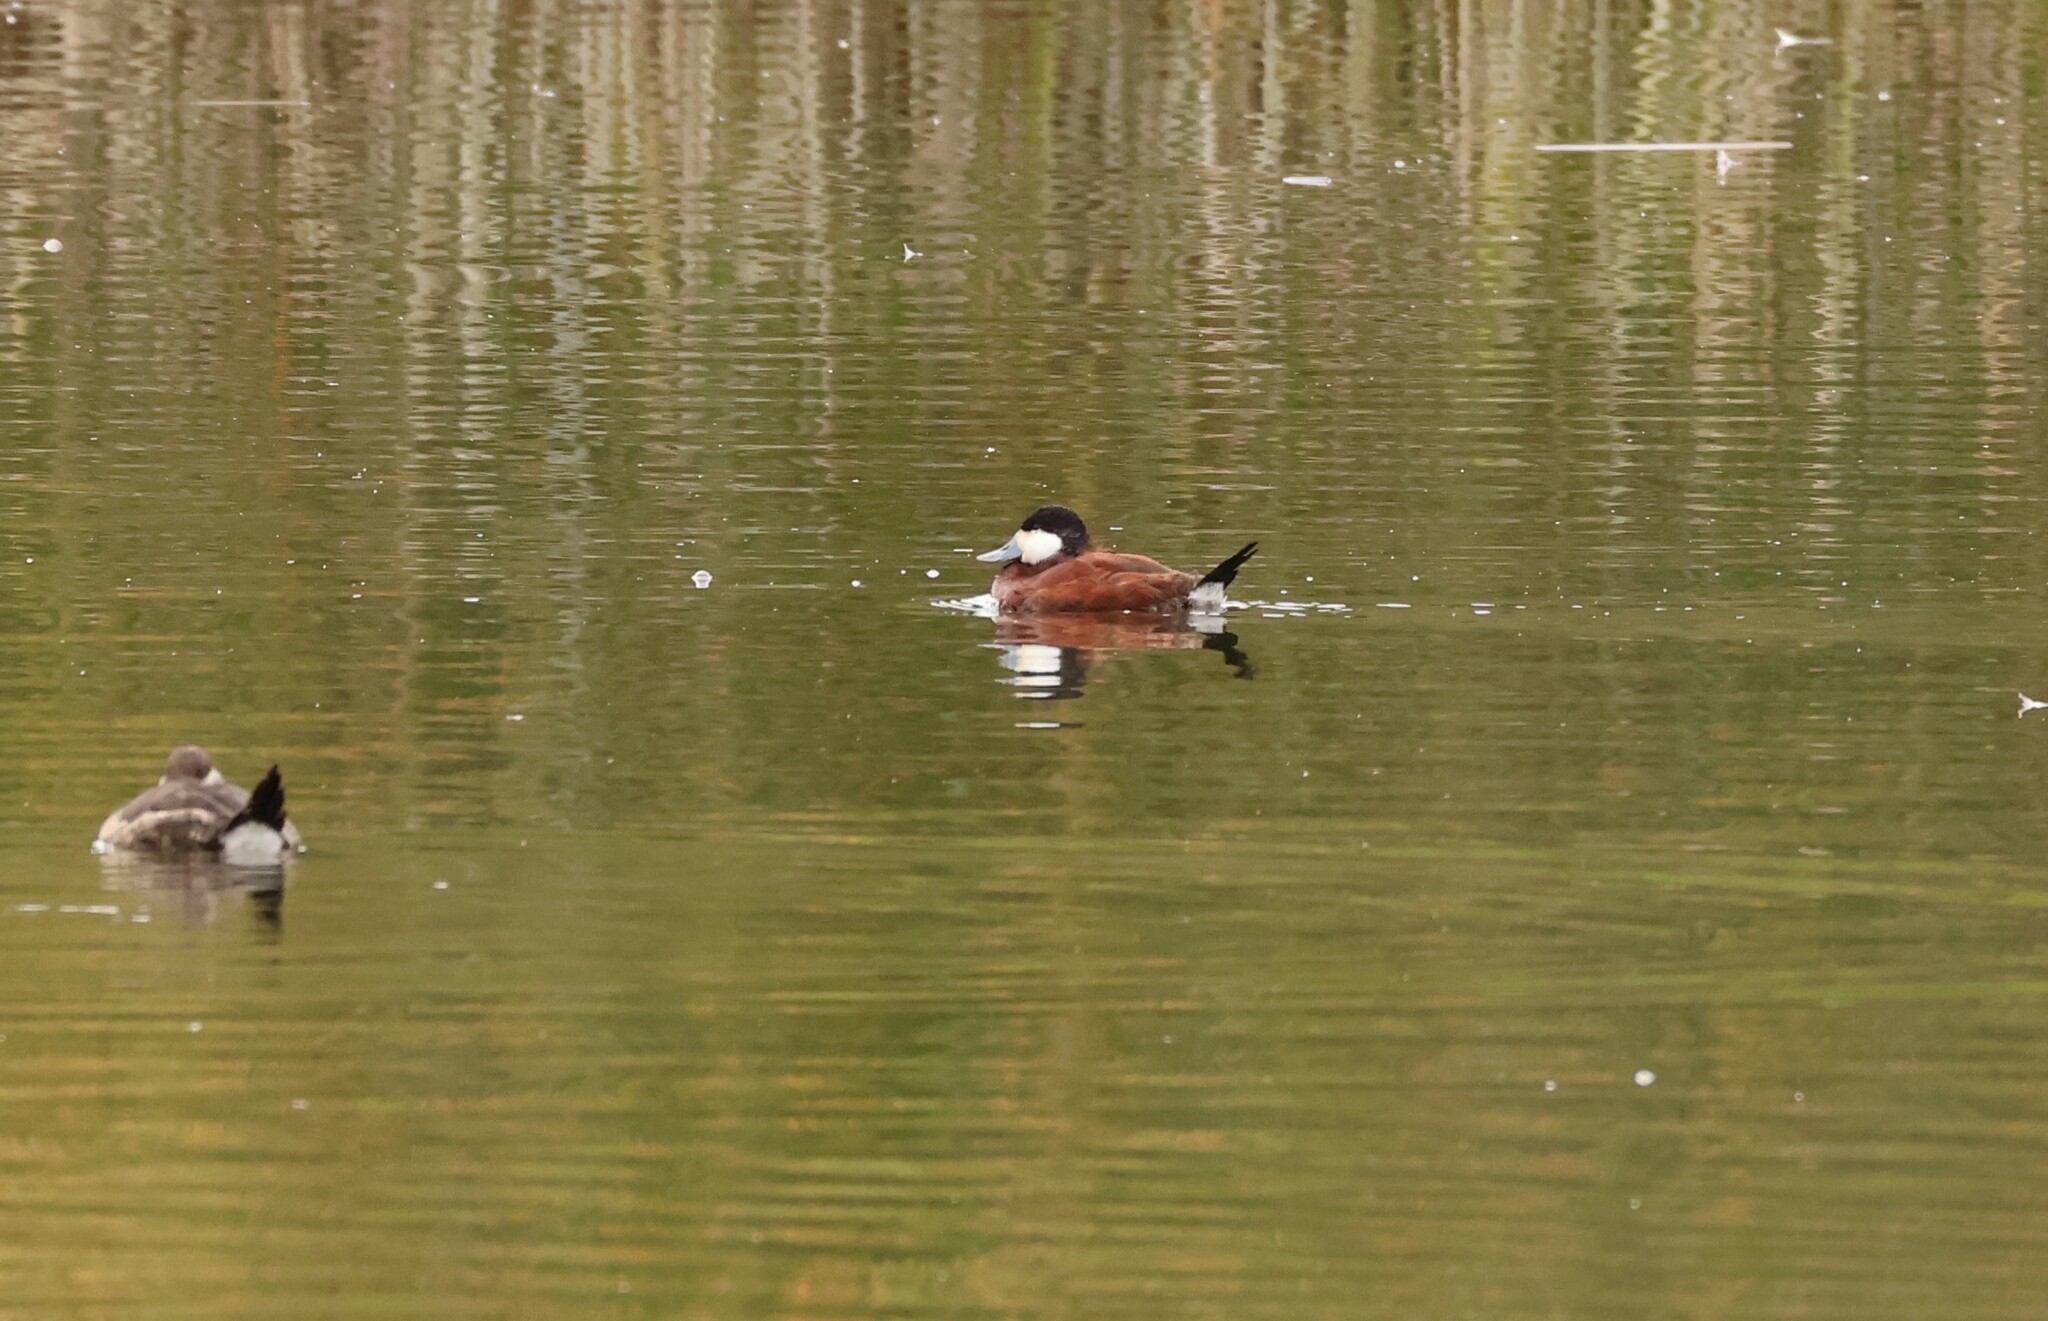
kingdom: Animalia
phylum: Chordata
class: Aves
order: Anseriformes
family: Anatidae
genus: Oxyura
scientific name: Oxyura jamaicensis
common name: Ruddy duck
